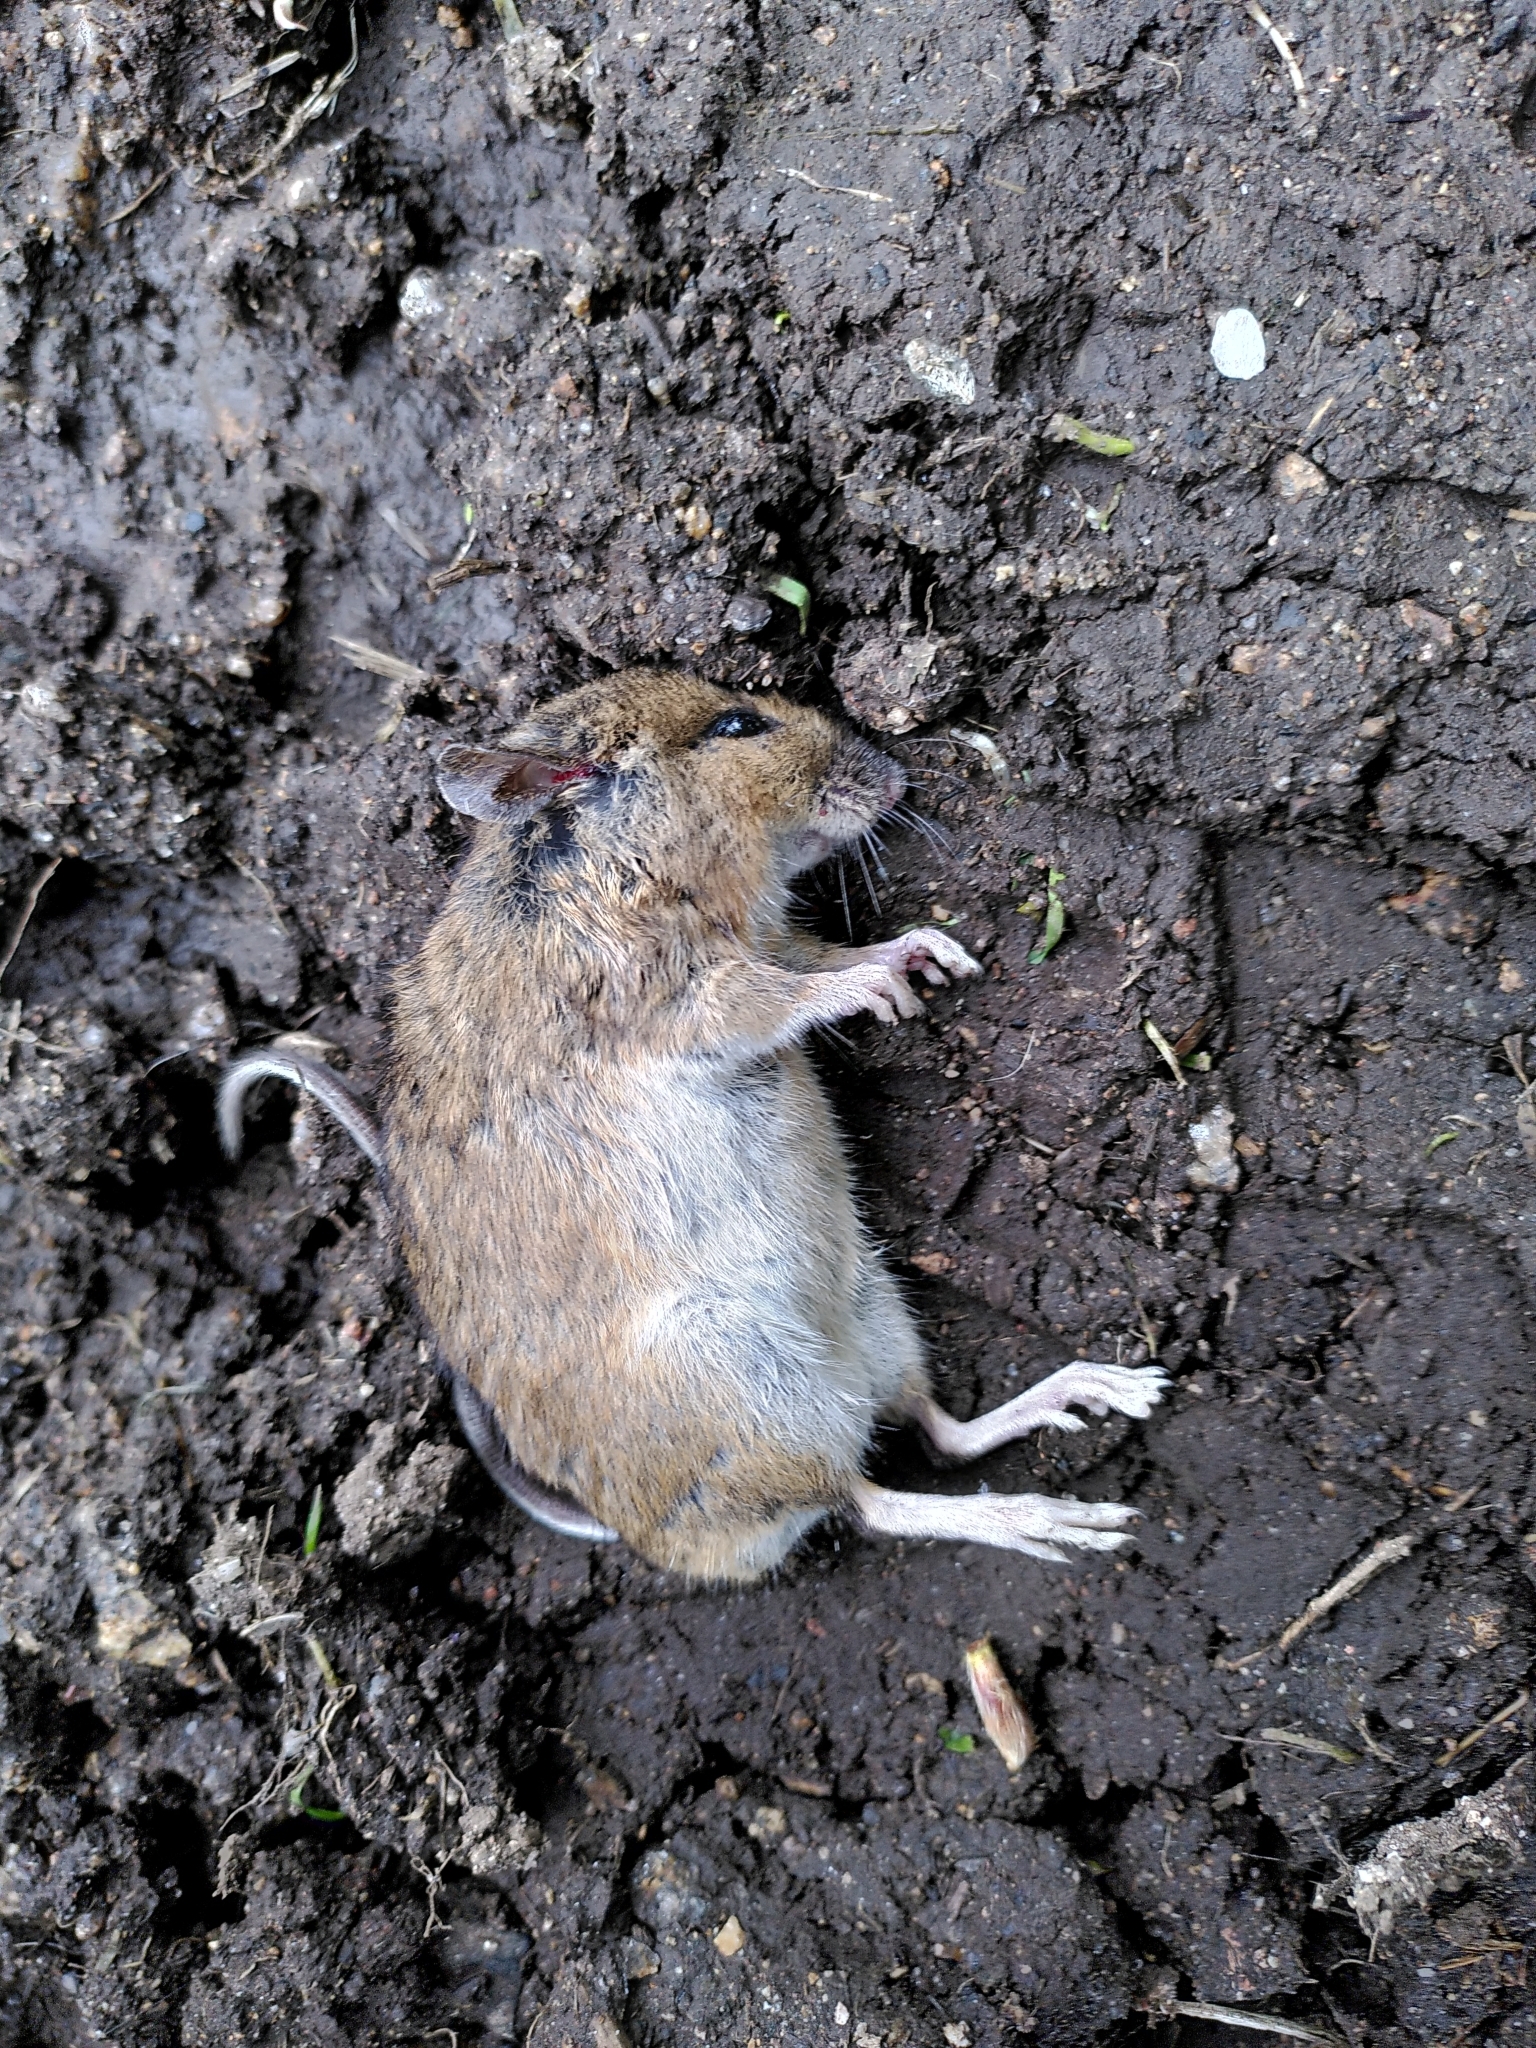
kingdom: Animalia
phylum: Chordata
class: Mammalia
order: Rodentia
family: Muridae
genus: Apodemus
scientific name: Apodemus sylvaticus
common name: Wood mouse
